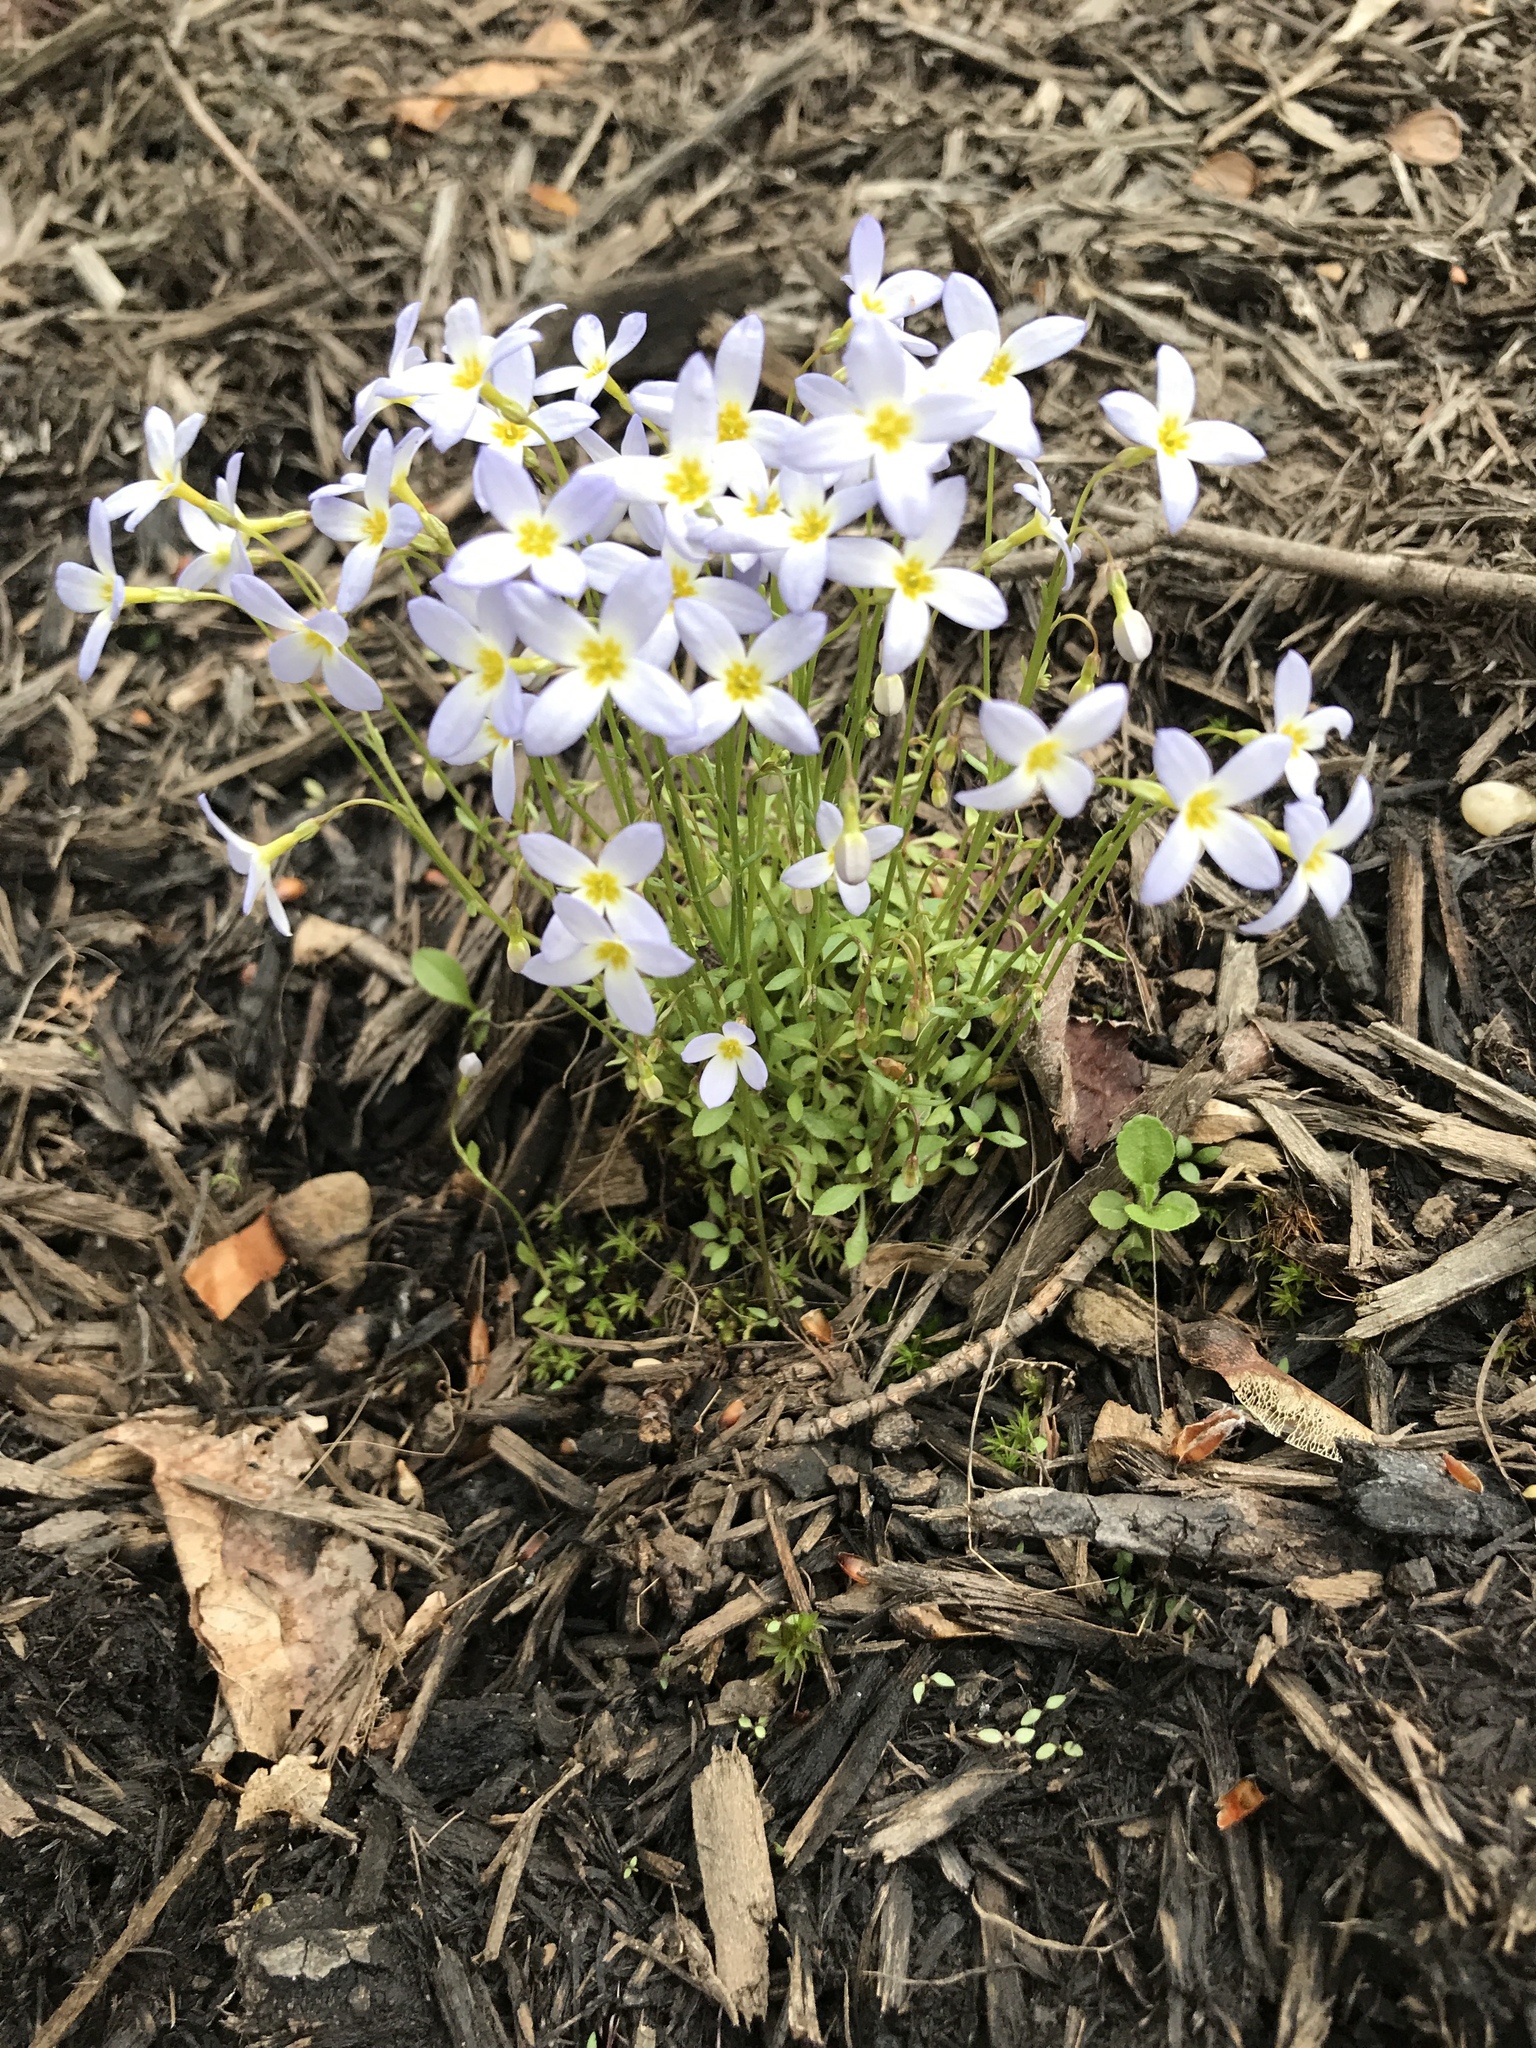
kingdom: Plantae
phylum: Tracheophyta
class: Magnoliopsida
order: Gentianales
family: Rubiaceae
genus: Houstonia
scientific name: Houstonia caerulea
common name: Bluets
